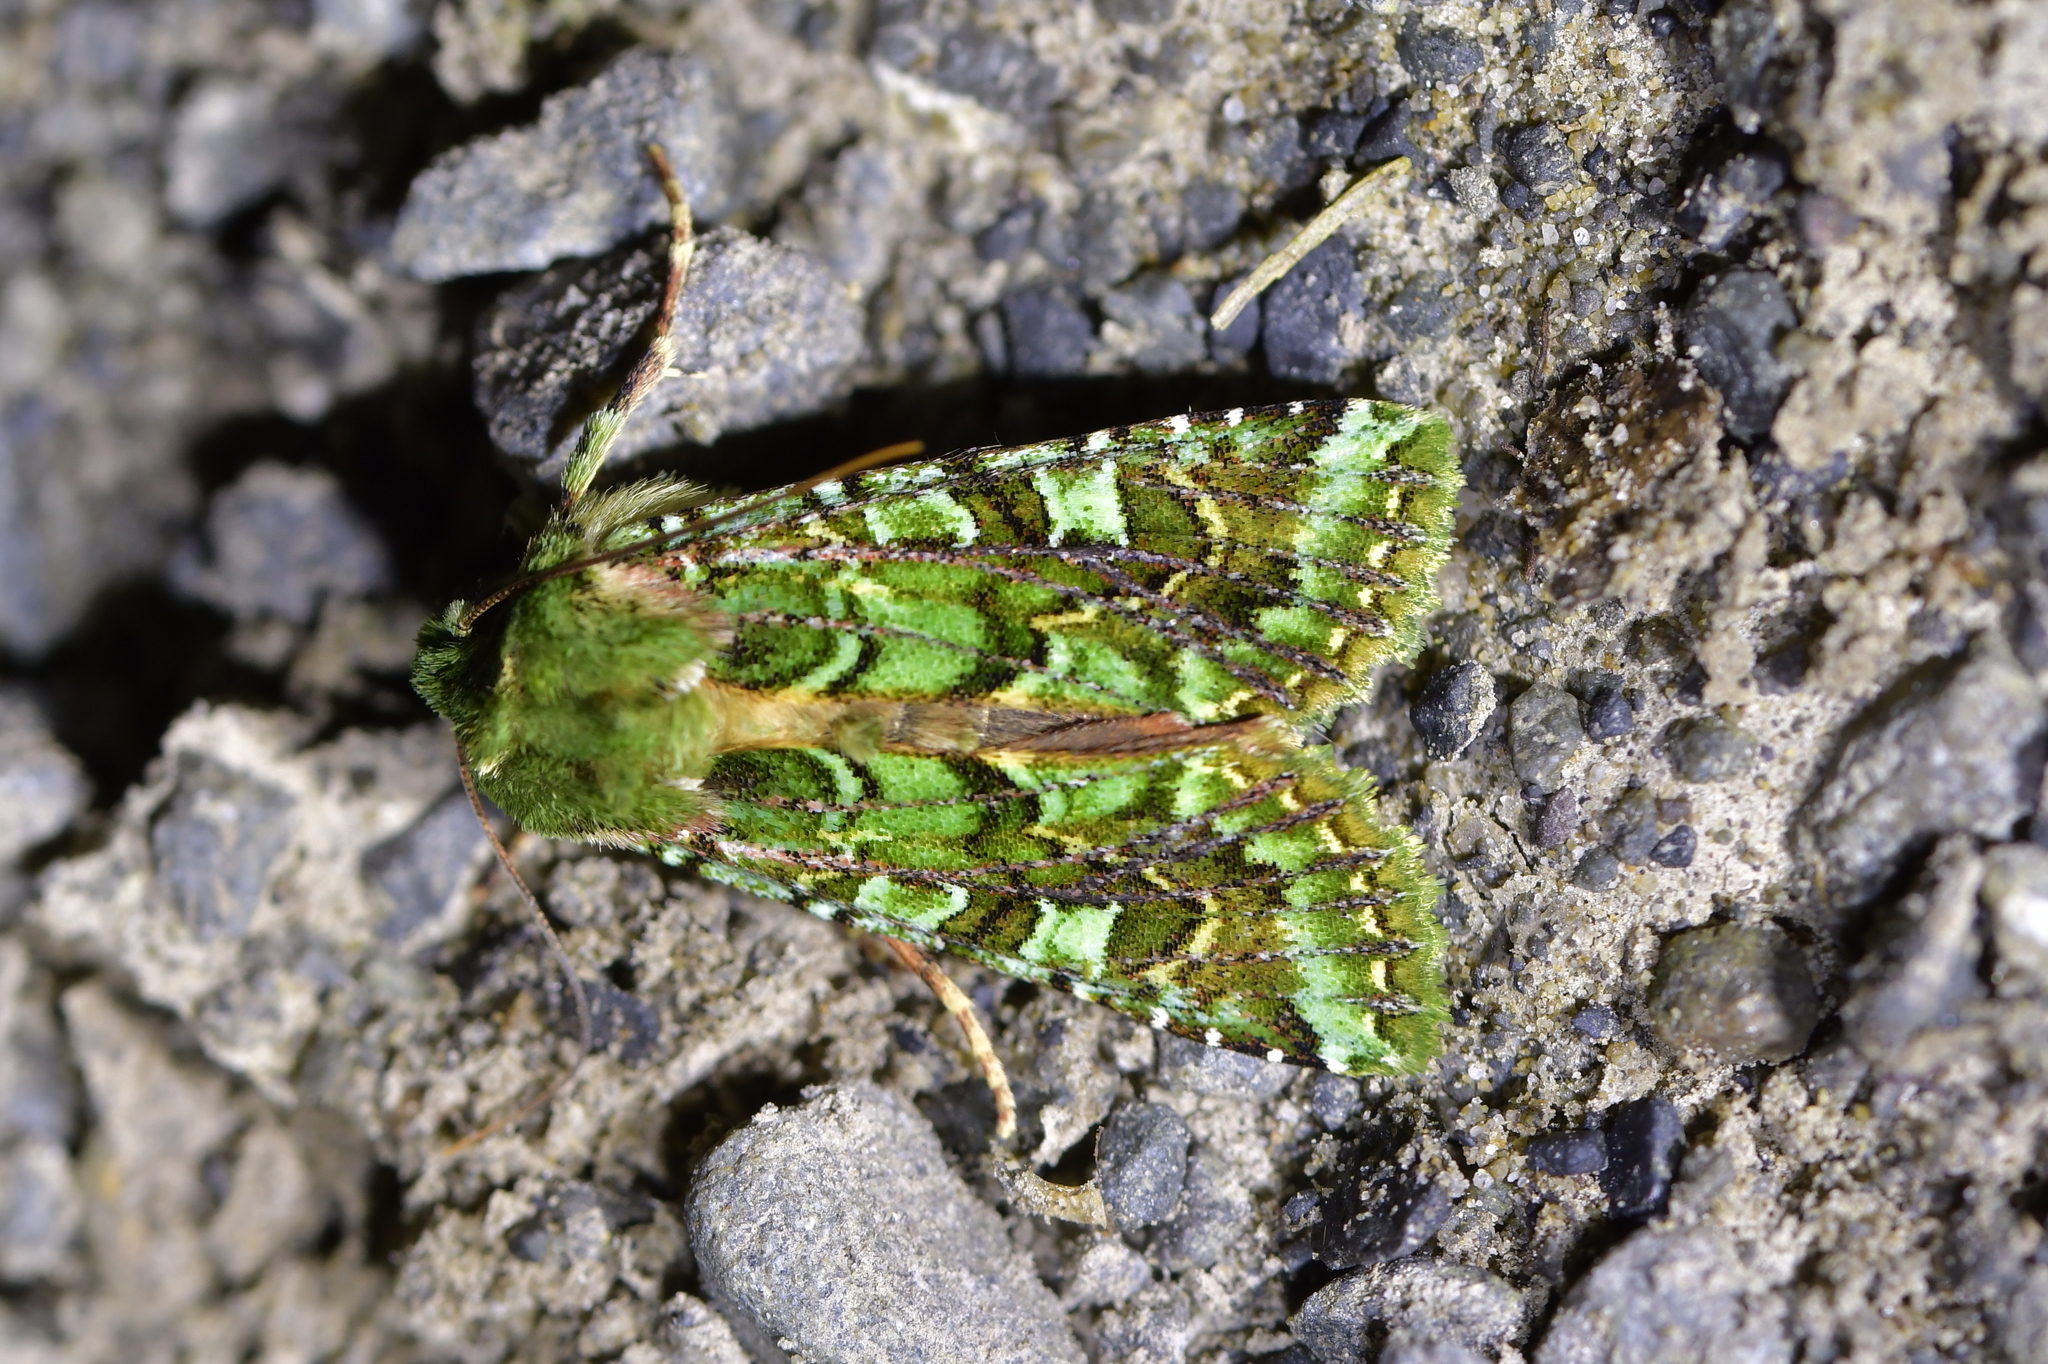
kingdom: Animalia
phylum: Arthropoda
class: Insecta
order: Lepidoptera
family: Noctuidae
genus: Feredayia
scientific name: Feredayia grammosa
